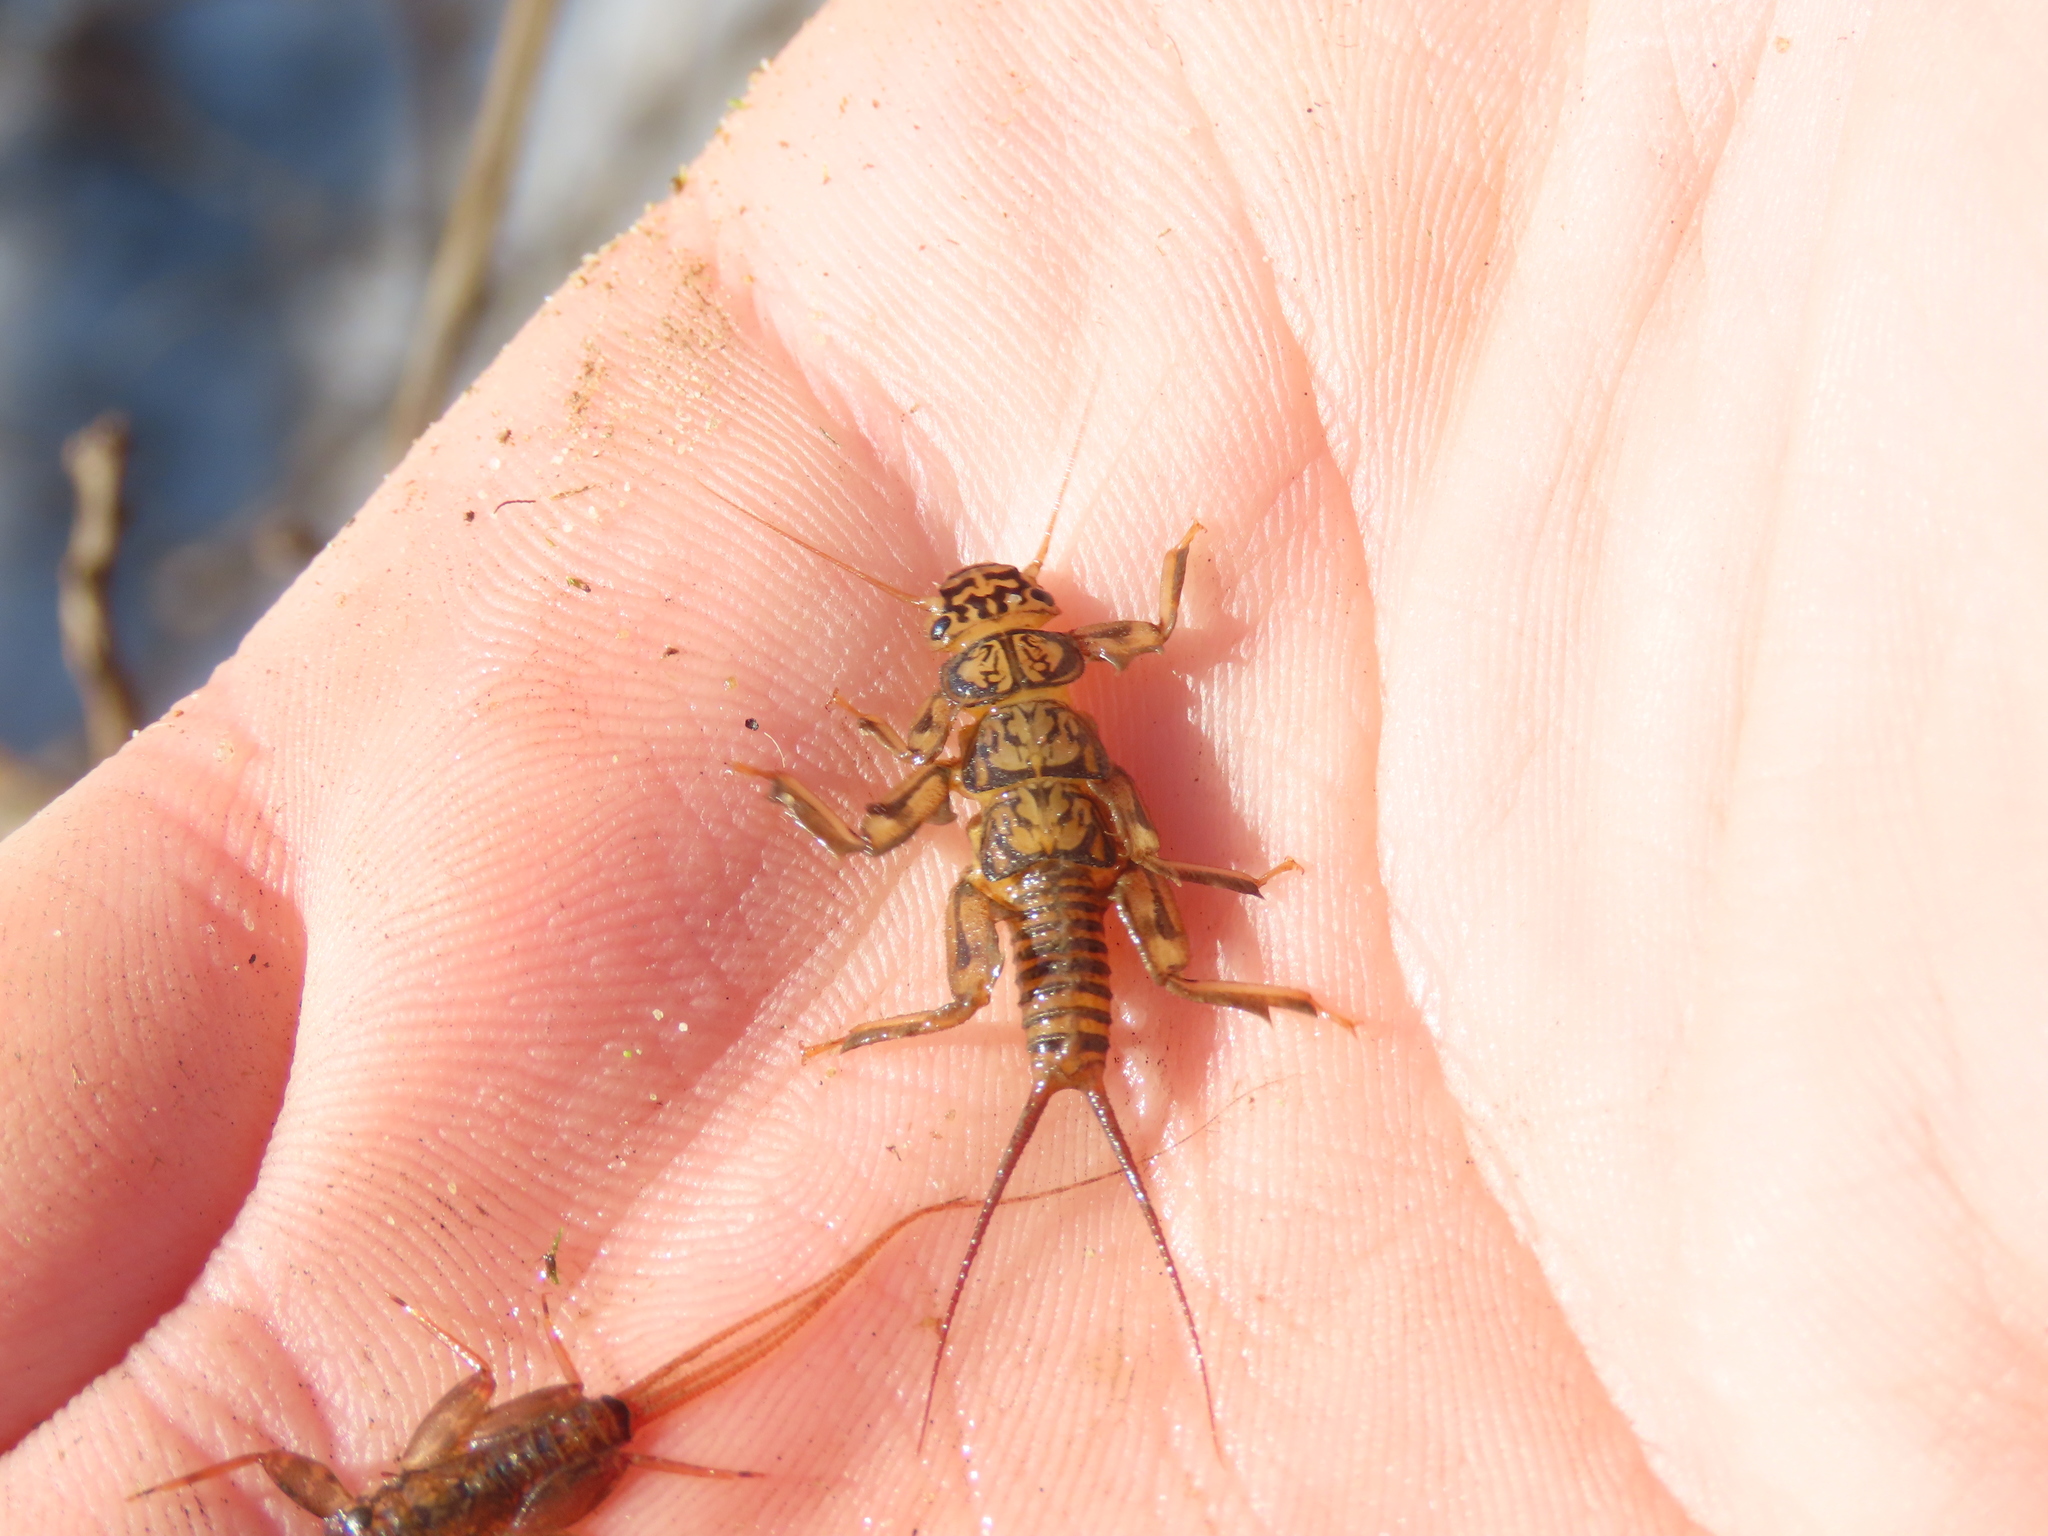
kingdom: Animalia
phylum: Arthropoda
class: Insecta
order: Plecoptera
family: Perlidae
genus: Paragnetina
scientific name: Paragnetina immarginata
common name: Beautiful stone
